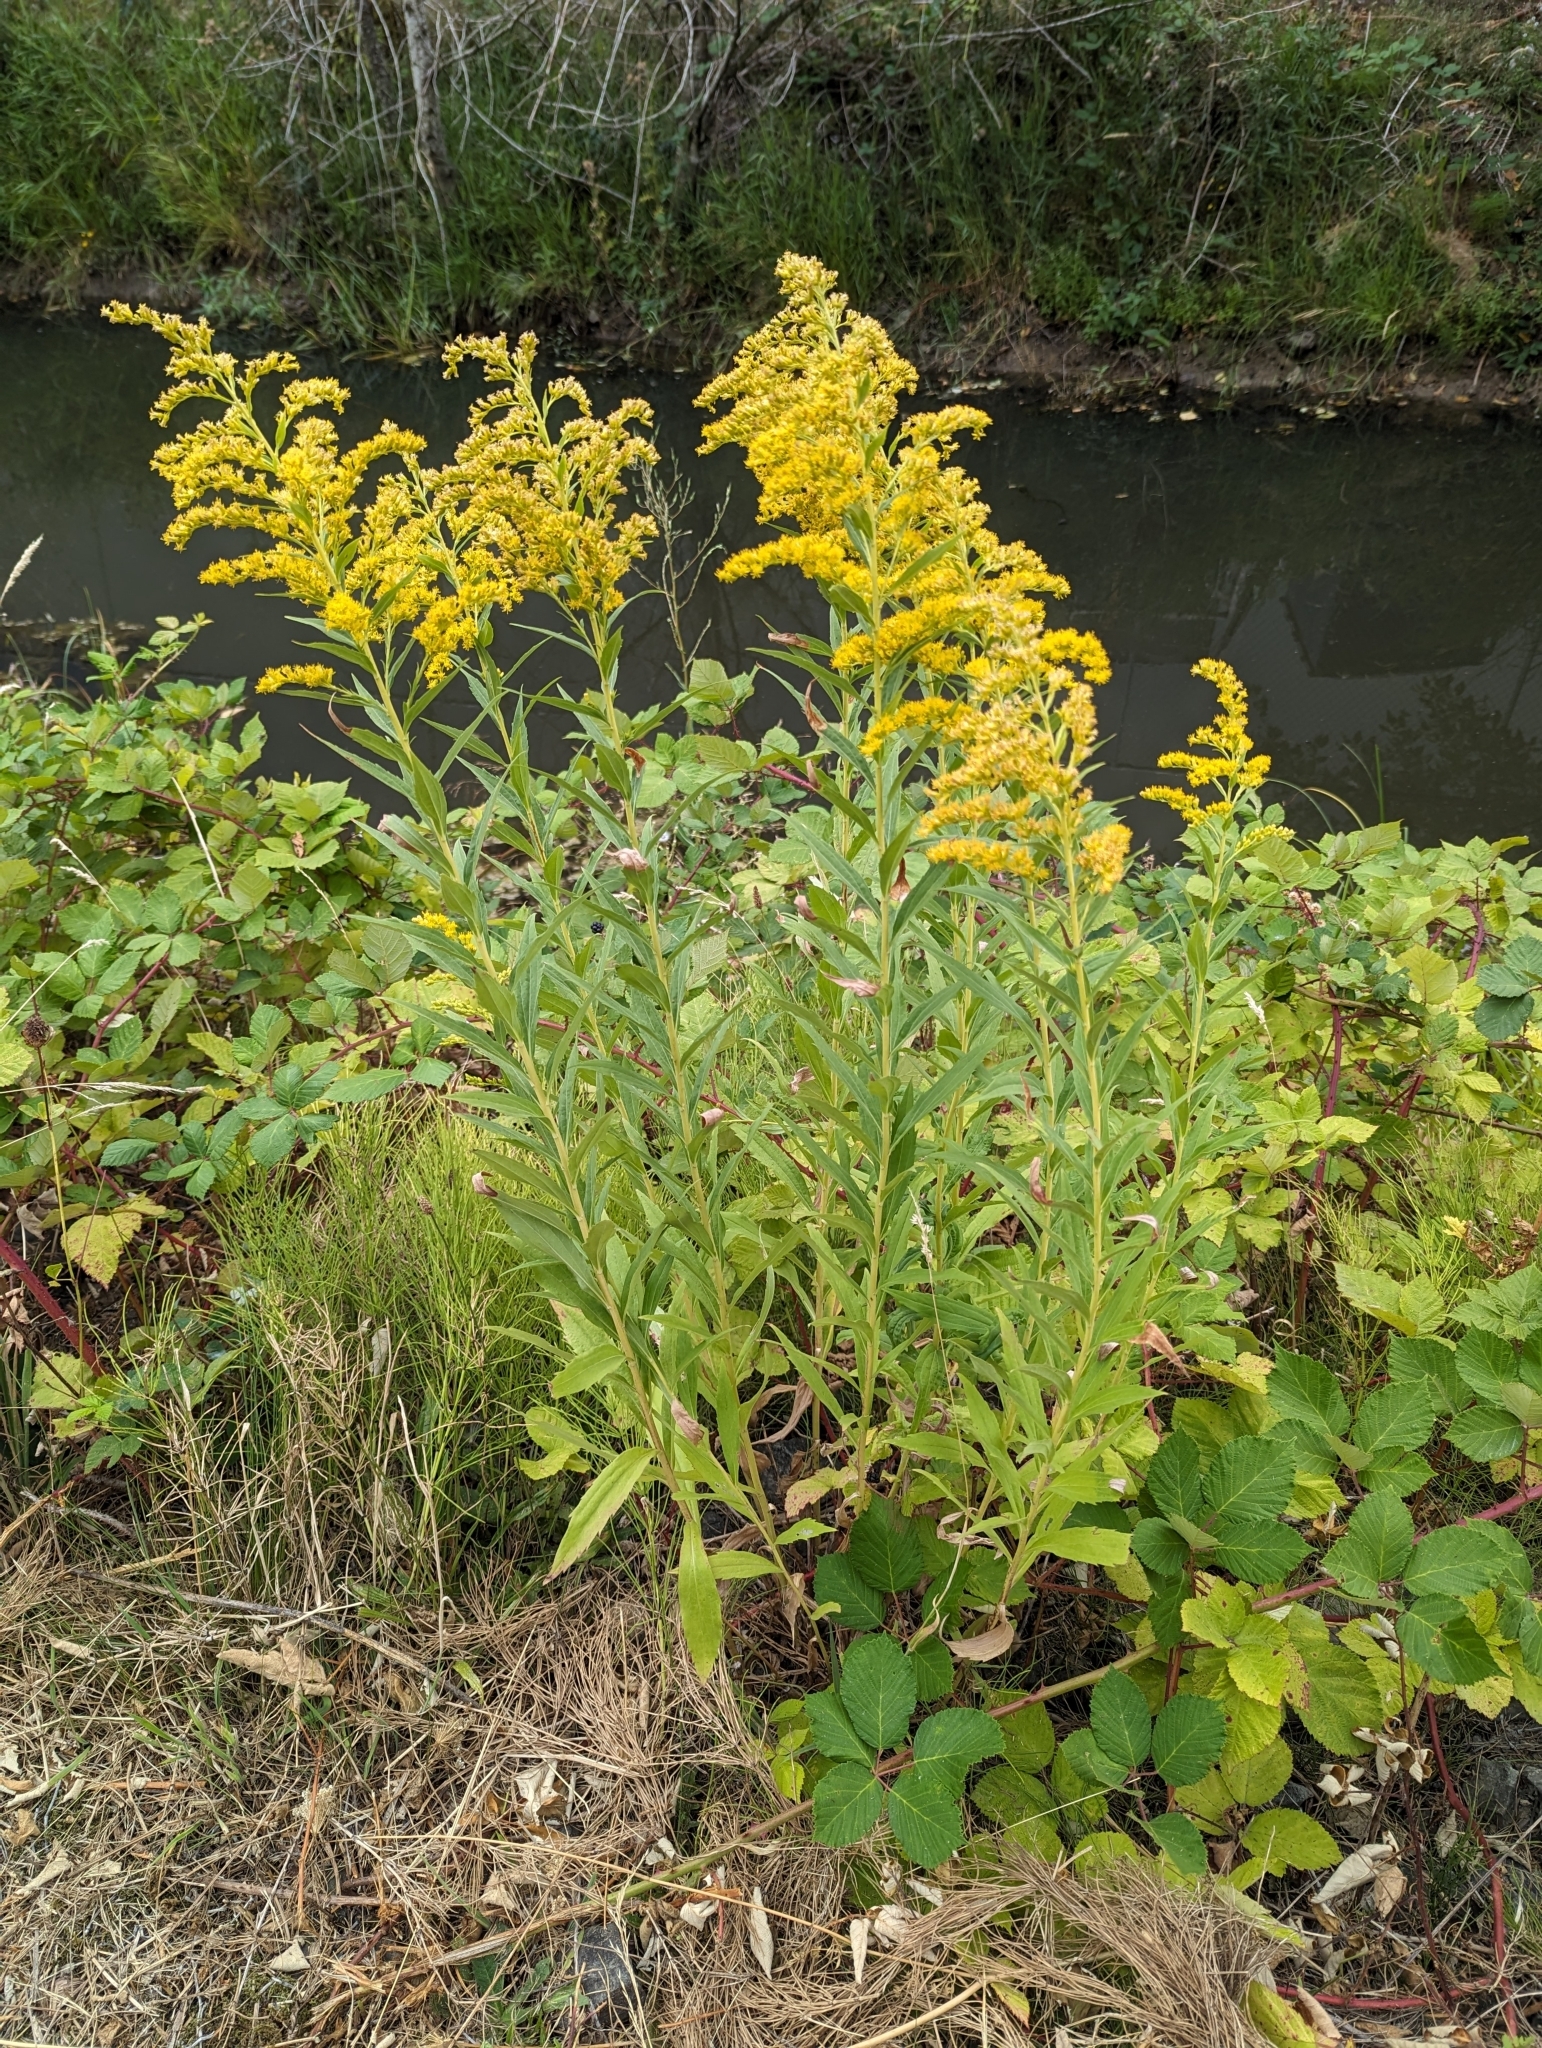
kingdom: Plantae
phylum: Tracheophyta
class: Magnoliopsida
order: Asterales
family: Asteraceae
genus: Solidago
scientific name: Solidago lepida
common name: Western canada goldenrod
